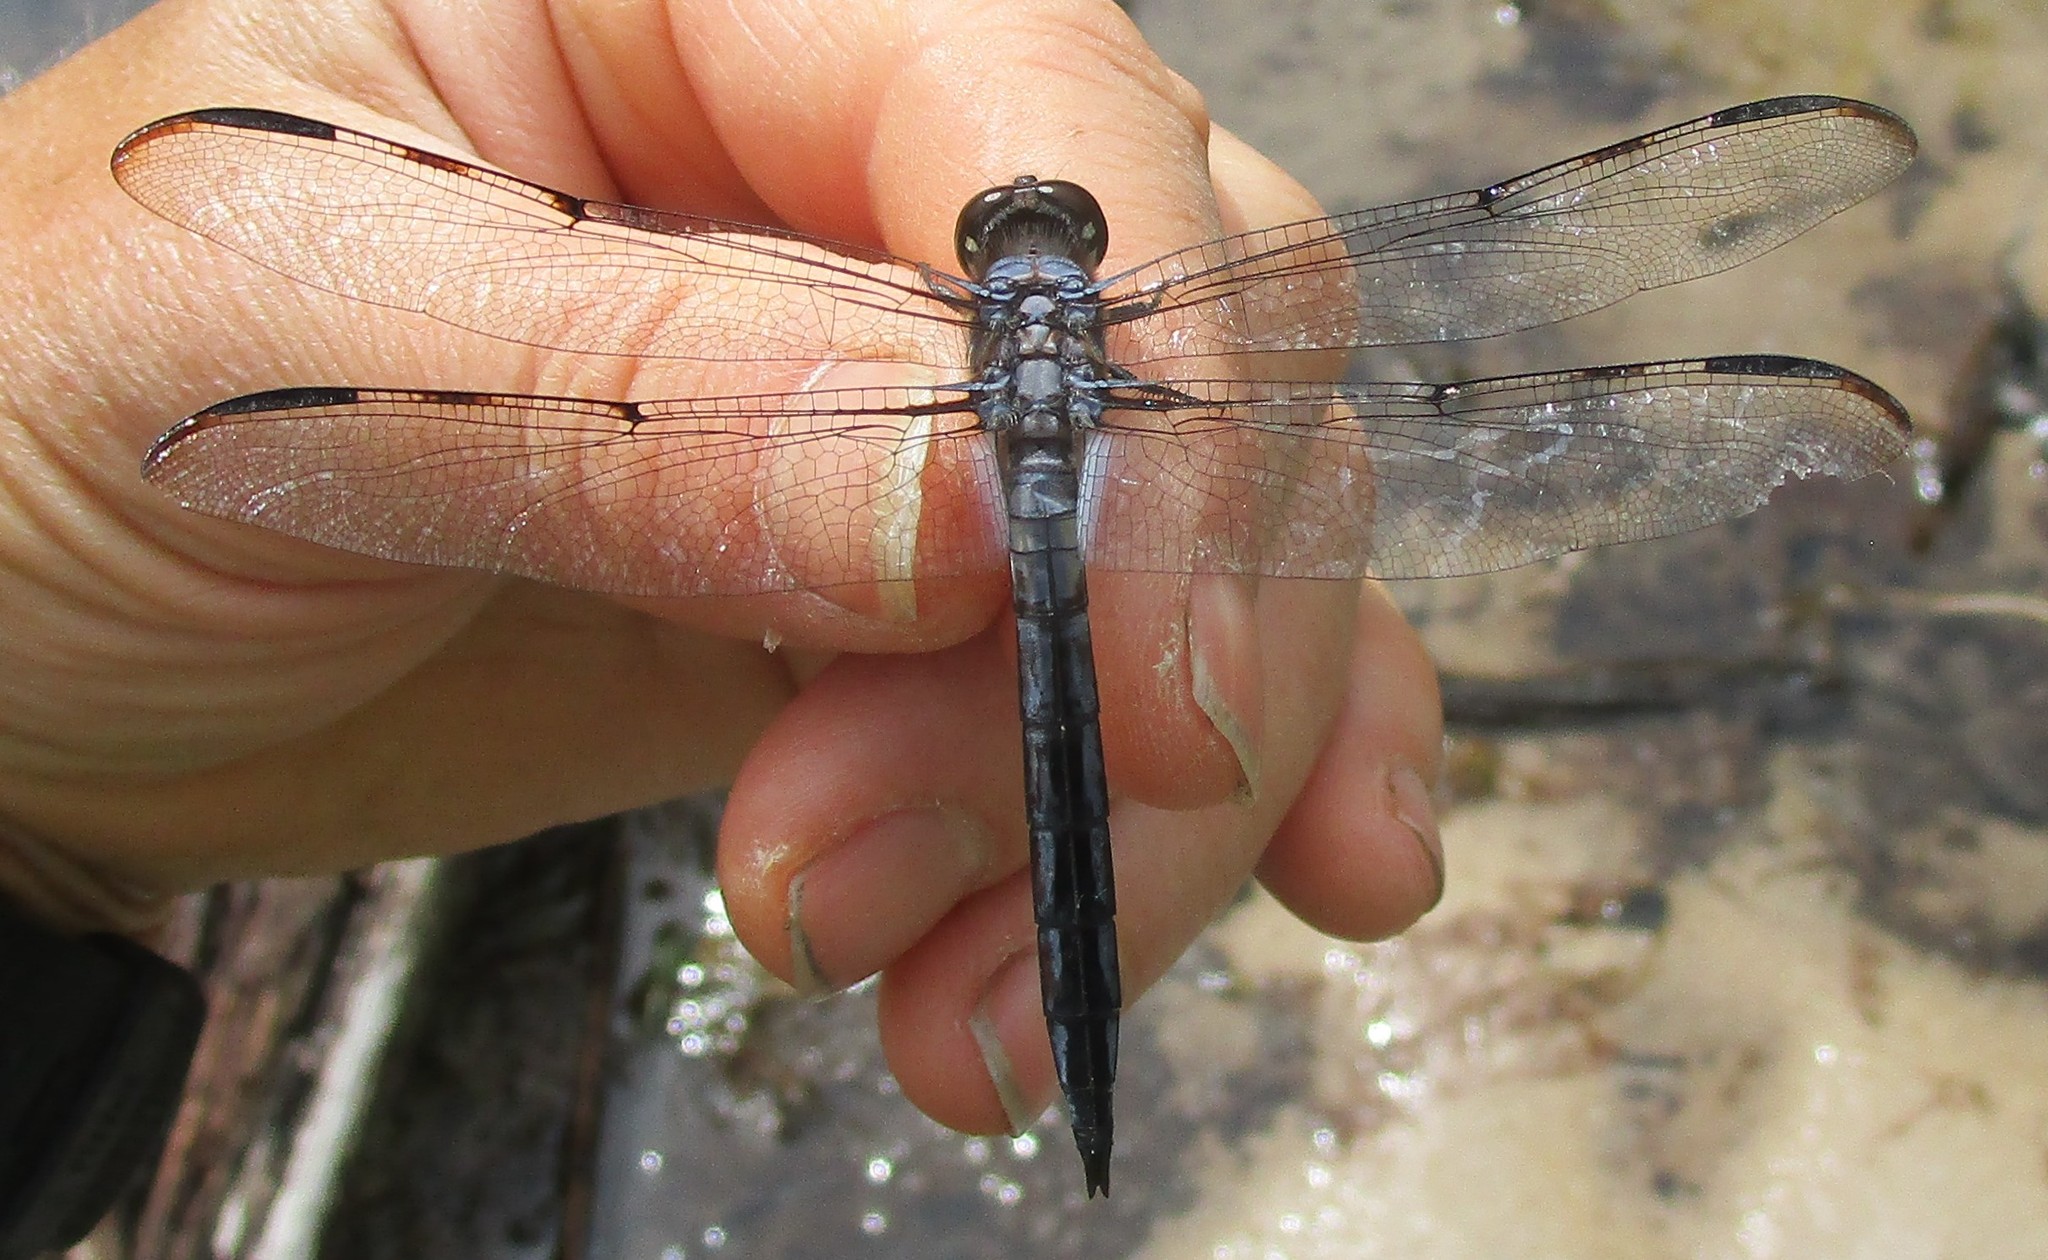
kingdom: Animalia
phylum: Arthropoda
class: Insecta
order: Odonata
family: Libellulidae
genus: Libellula
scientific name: Libellula axilena
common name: Bar-winged skimmer
